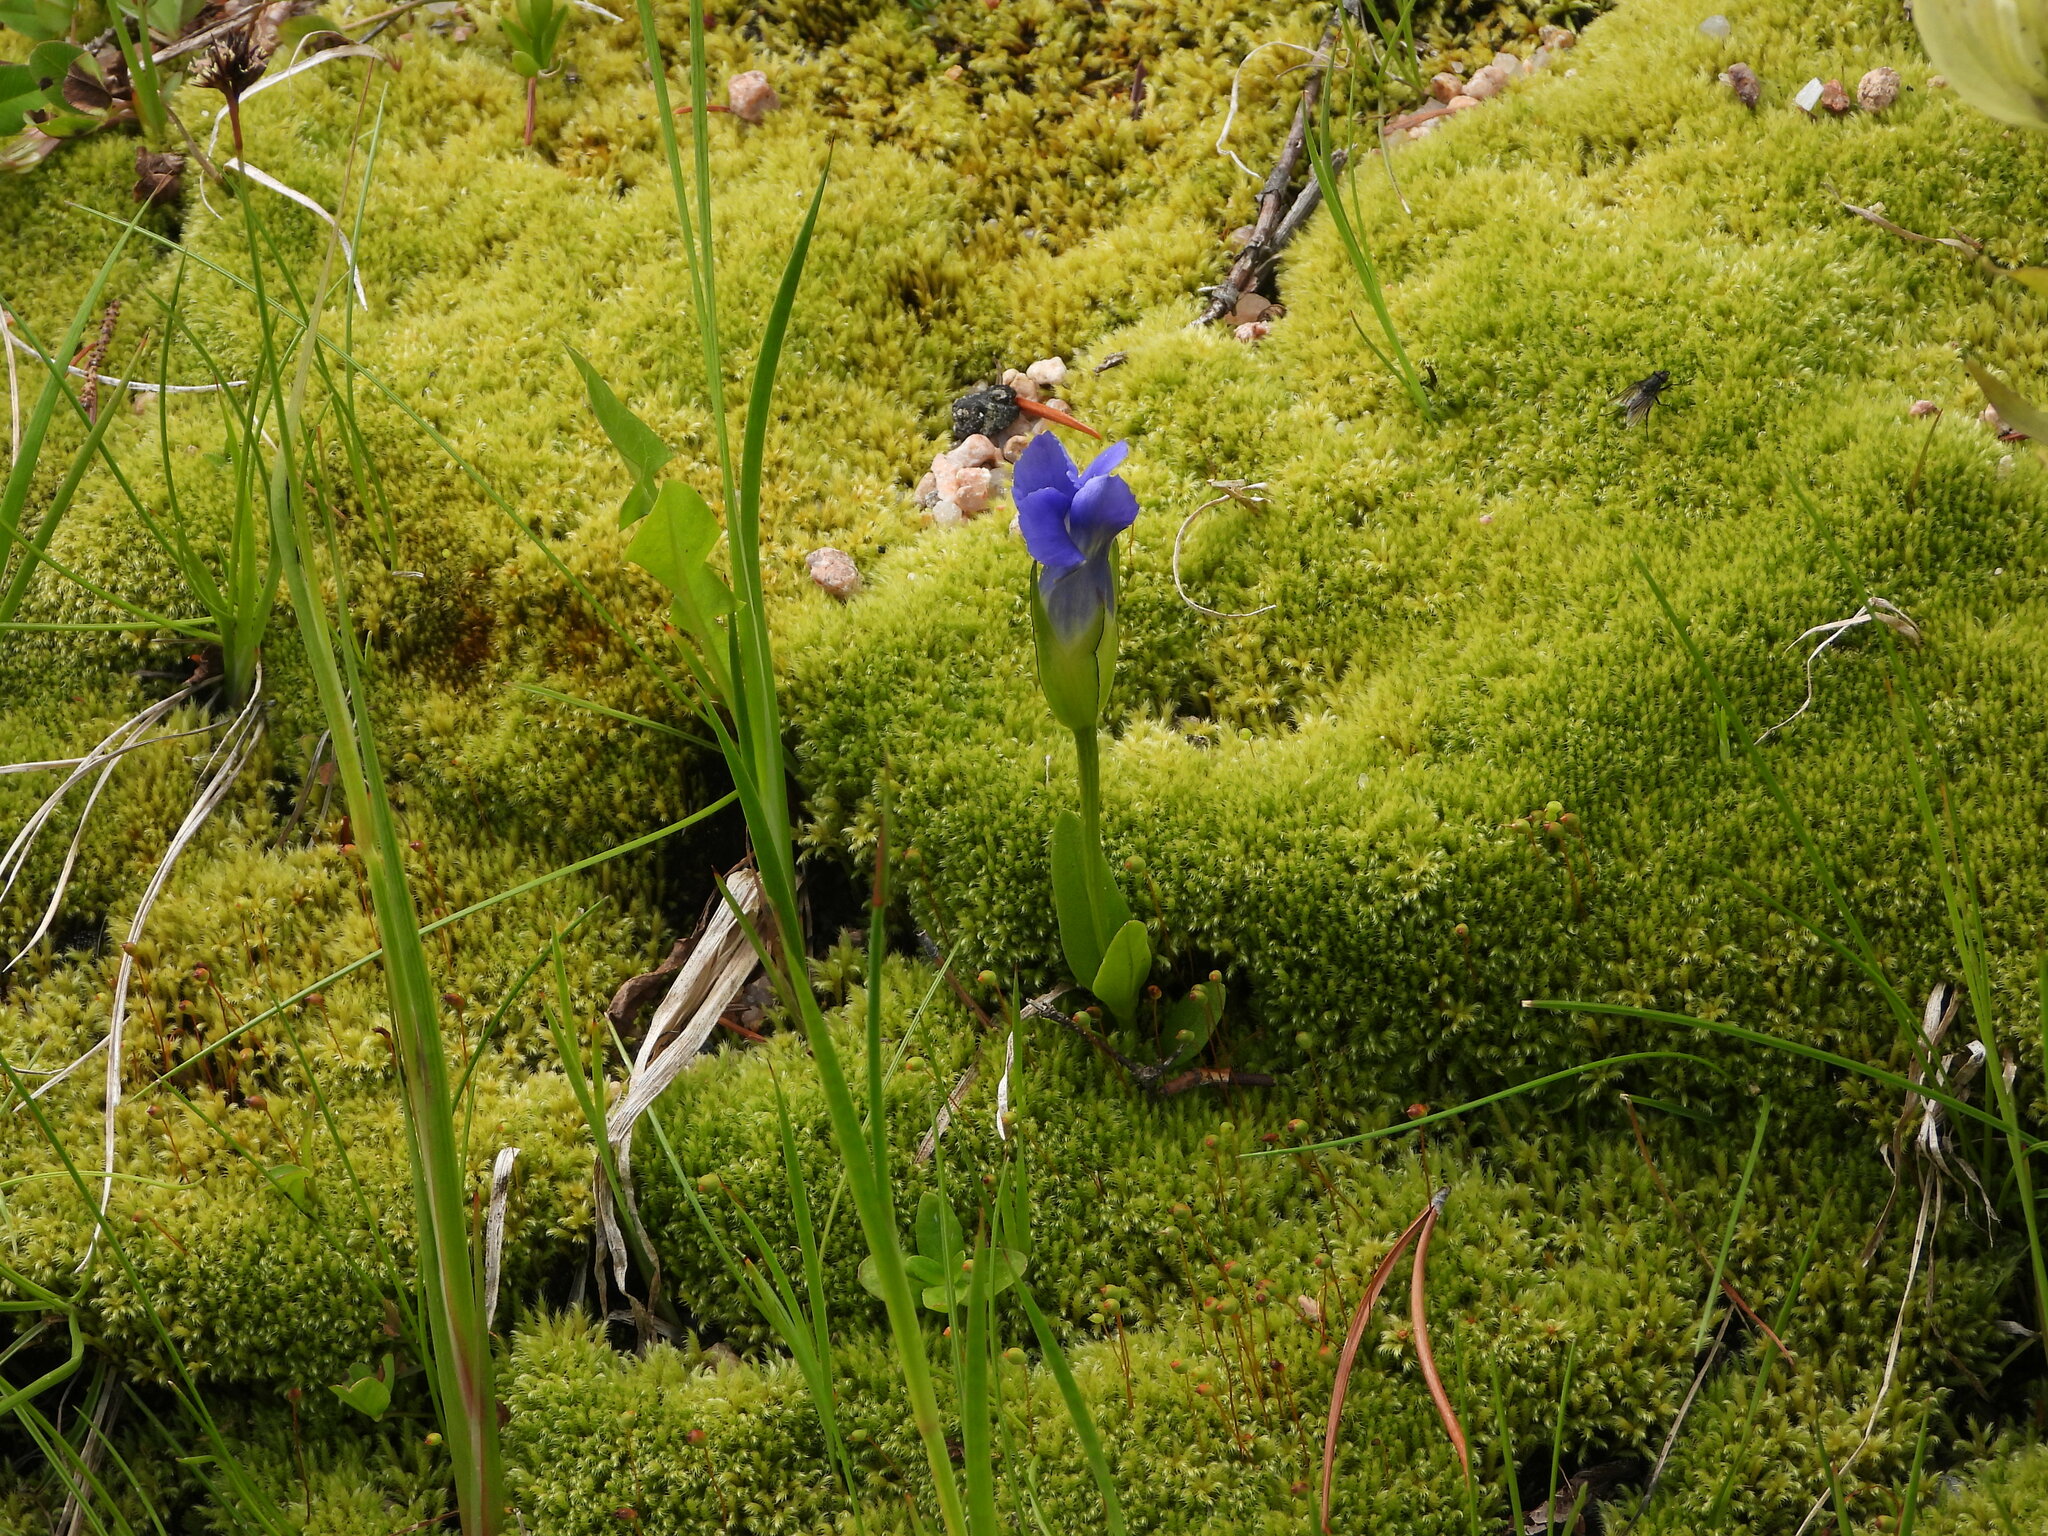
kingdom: Plantae
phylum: Tracheophyta
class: Magnoliopsida
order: Gentianales
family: Gentianaceae
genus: Gentianopsis
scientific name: Gentianopsis thermalis
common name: Rocky mountain fringed-gentian
